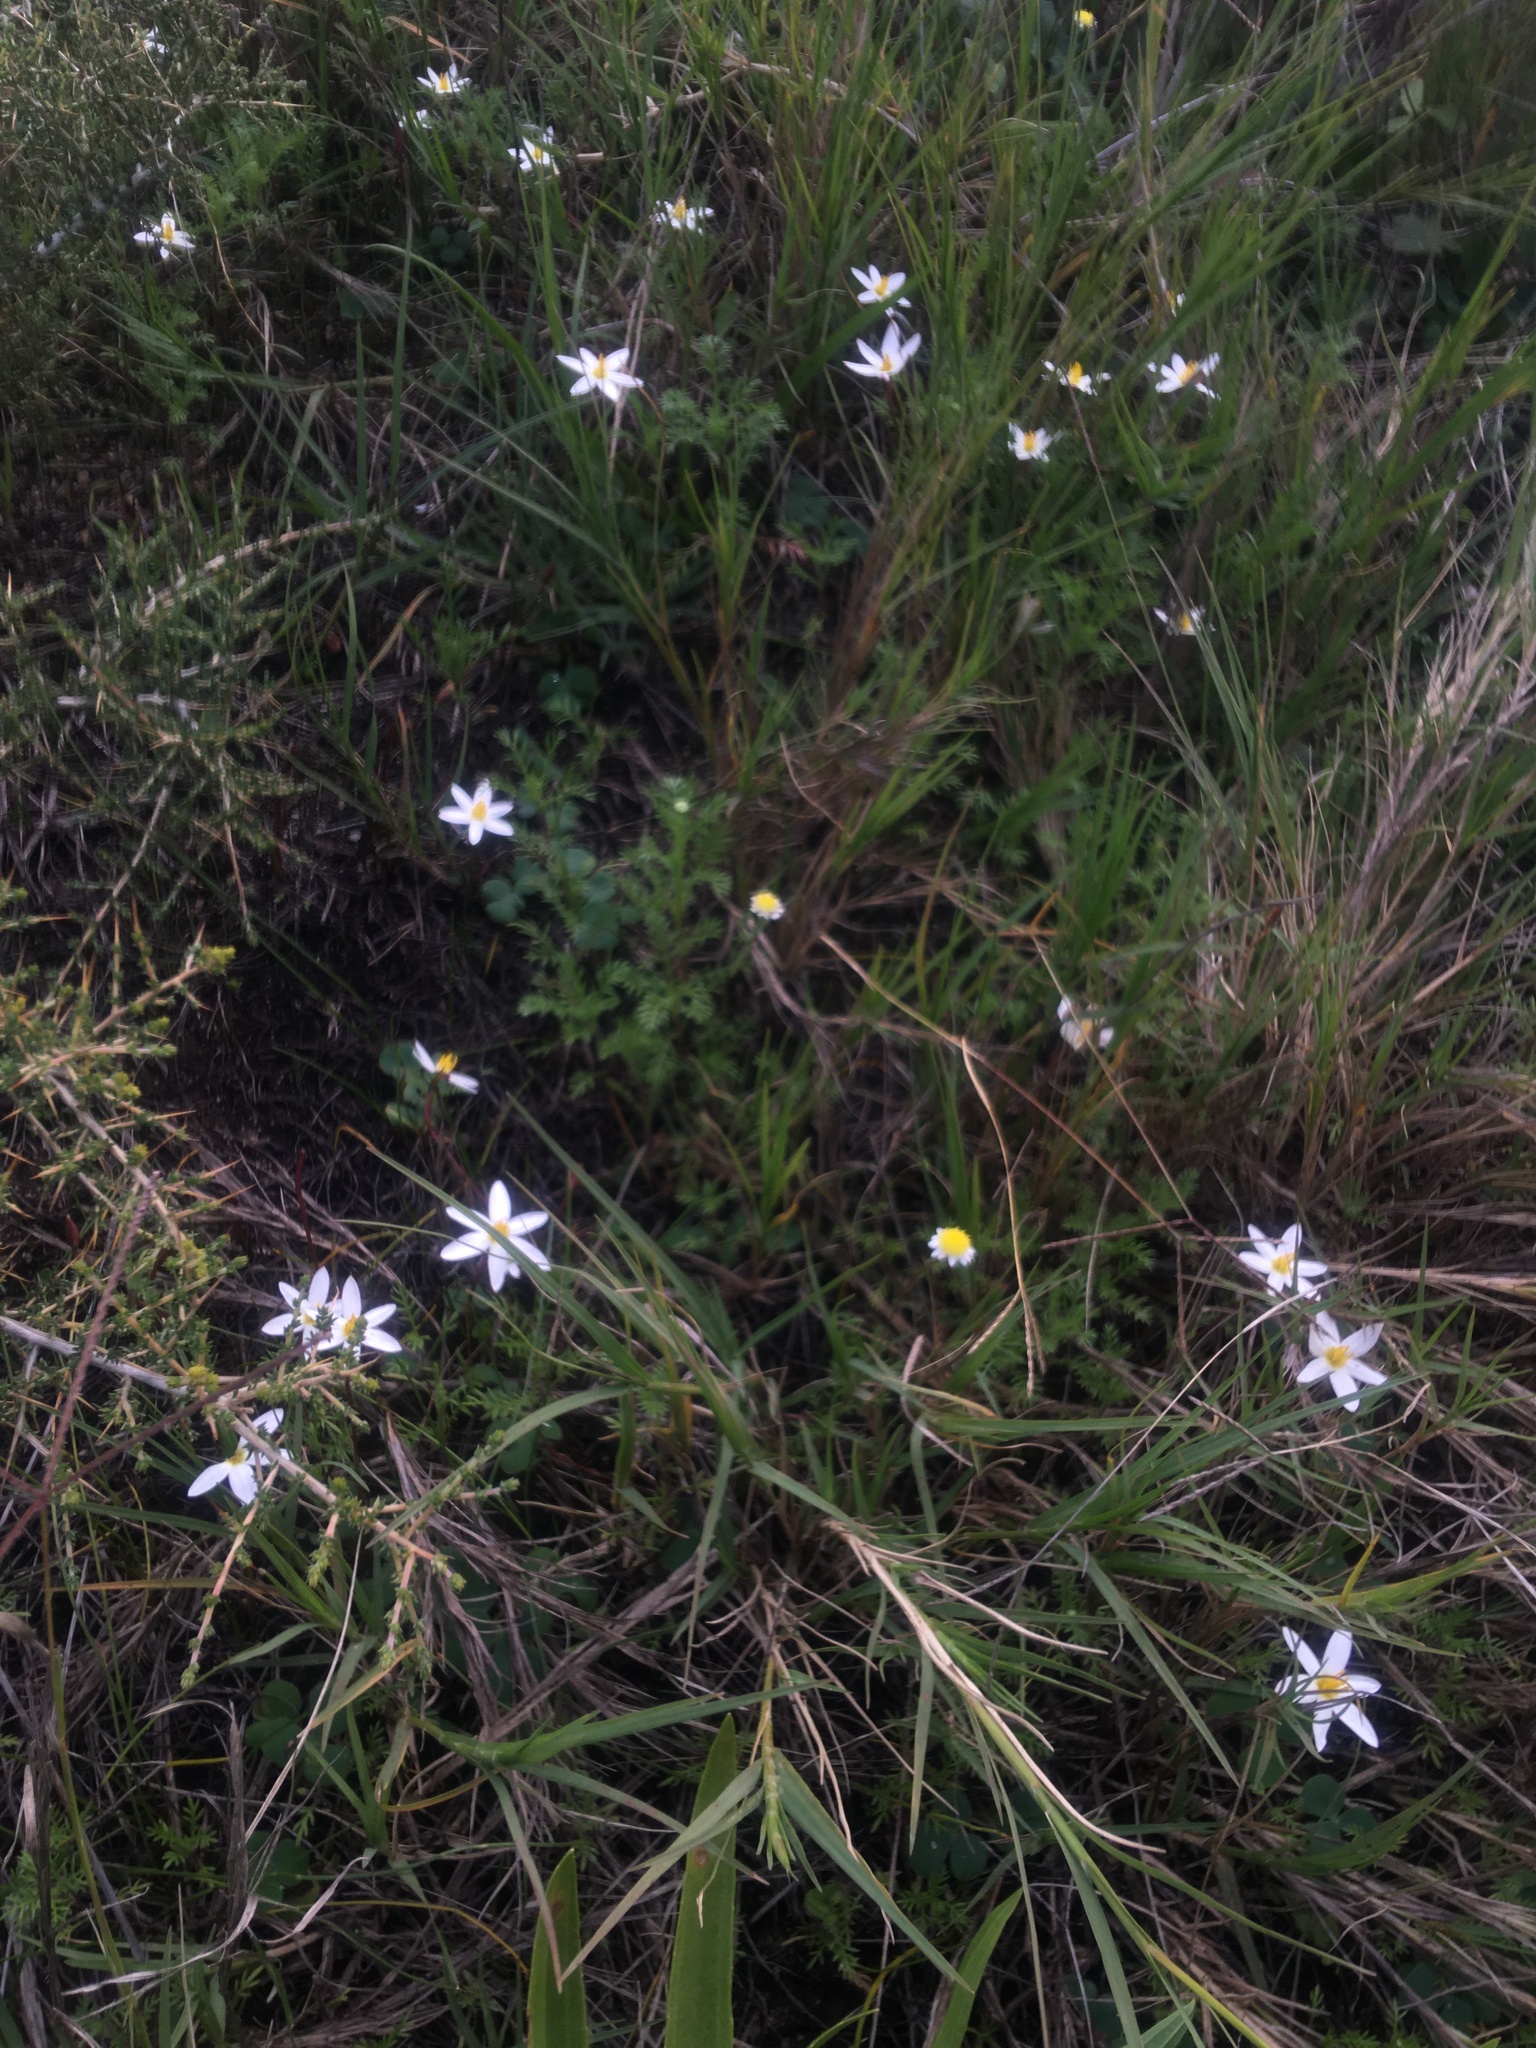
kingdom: Plantae
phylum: Tracheophyta
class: Liliopsida
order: Asparagales
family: Hypoxidaceae
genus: Pauridia
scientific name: Pauridia alba
